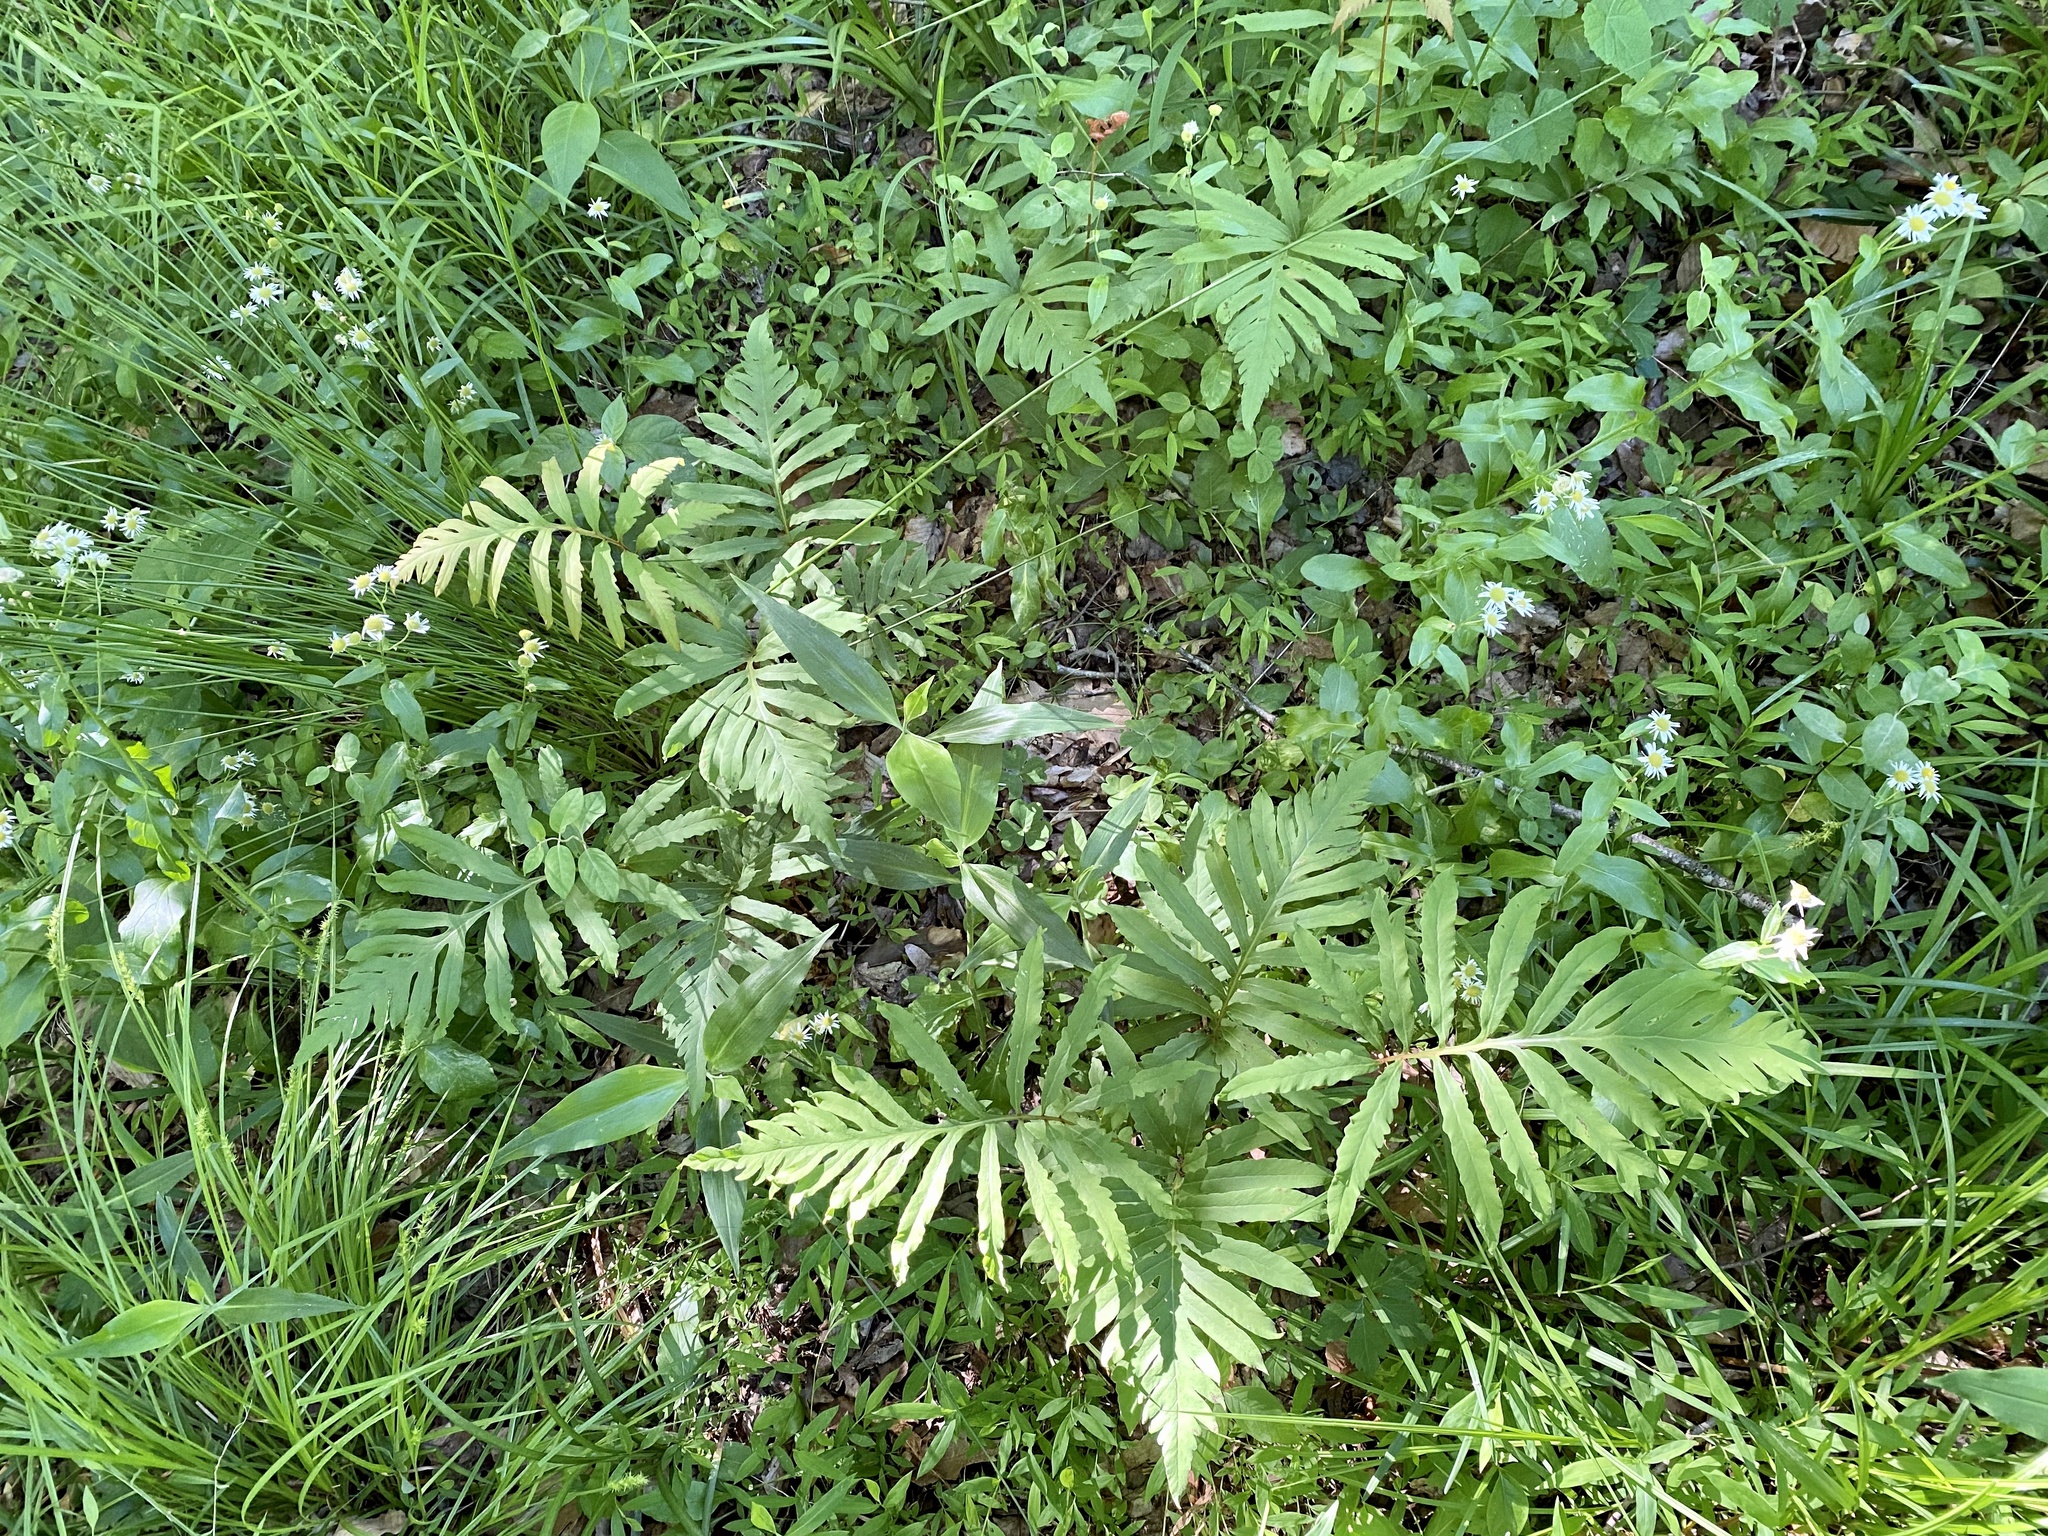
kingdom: Plantae
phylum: Tracheophyta
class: Polypodiopsida
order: Polypodiales
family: Onocleaceae
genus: Onoclea
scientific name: Onoclea sensibilis
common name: Sensitive fern
